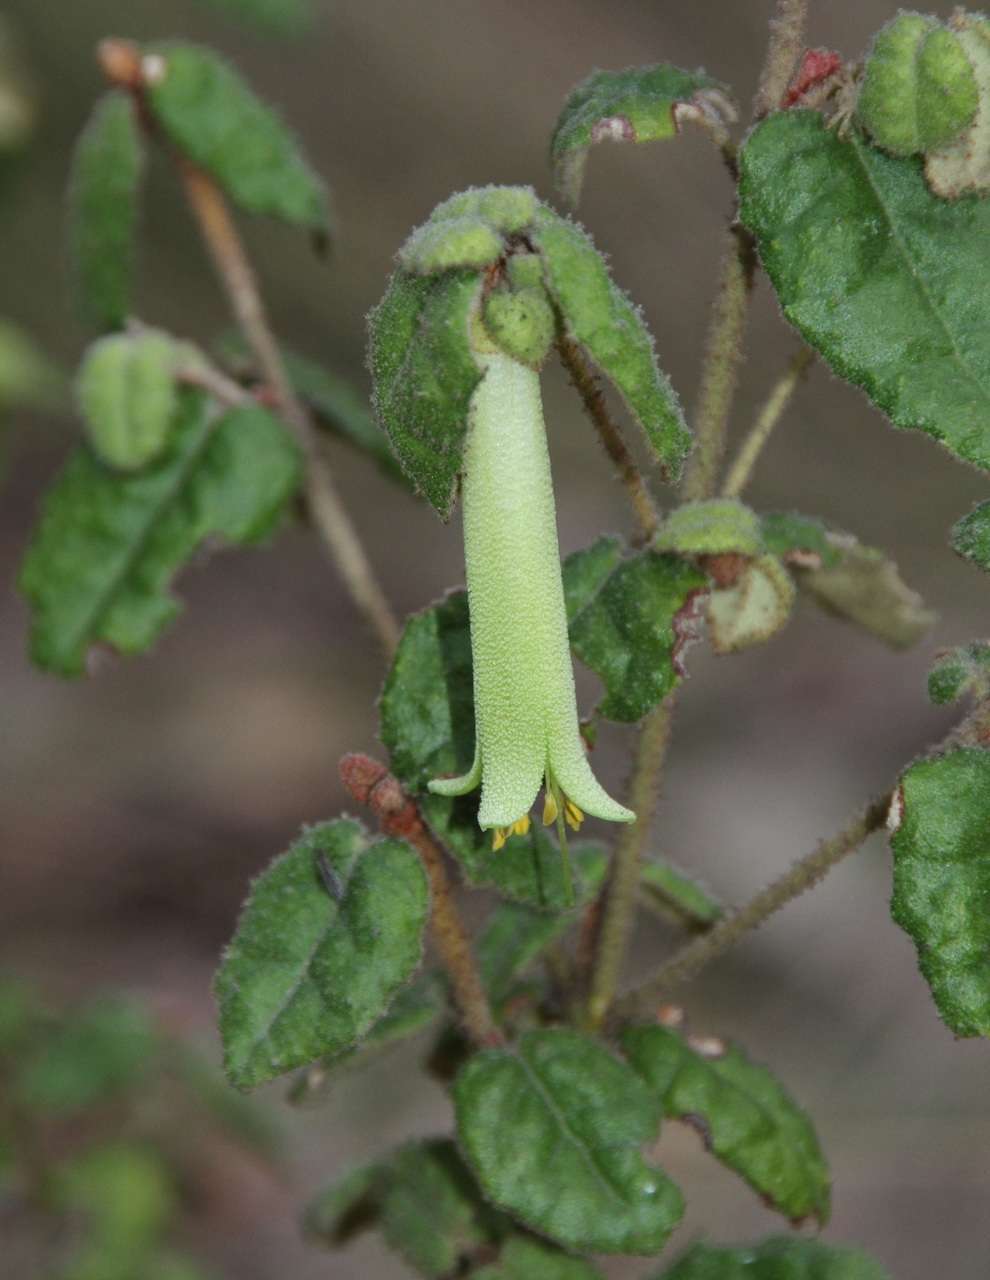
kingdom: Plantae
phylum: Tracheophyta
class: Magnoliopsida
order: Sapindales
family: Rutaceae
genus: Correa
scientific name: Correa reflexa
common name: Common correa
